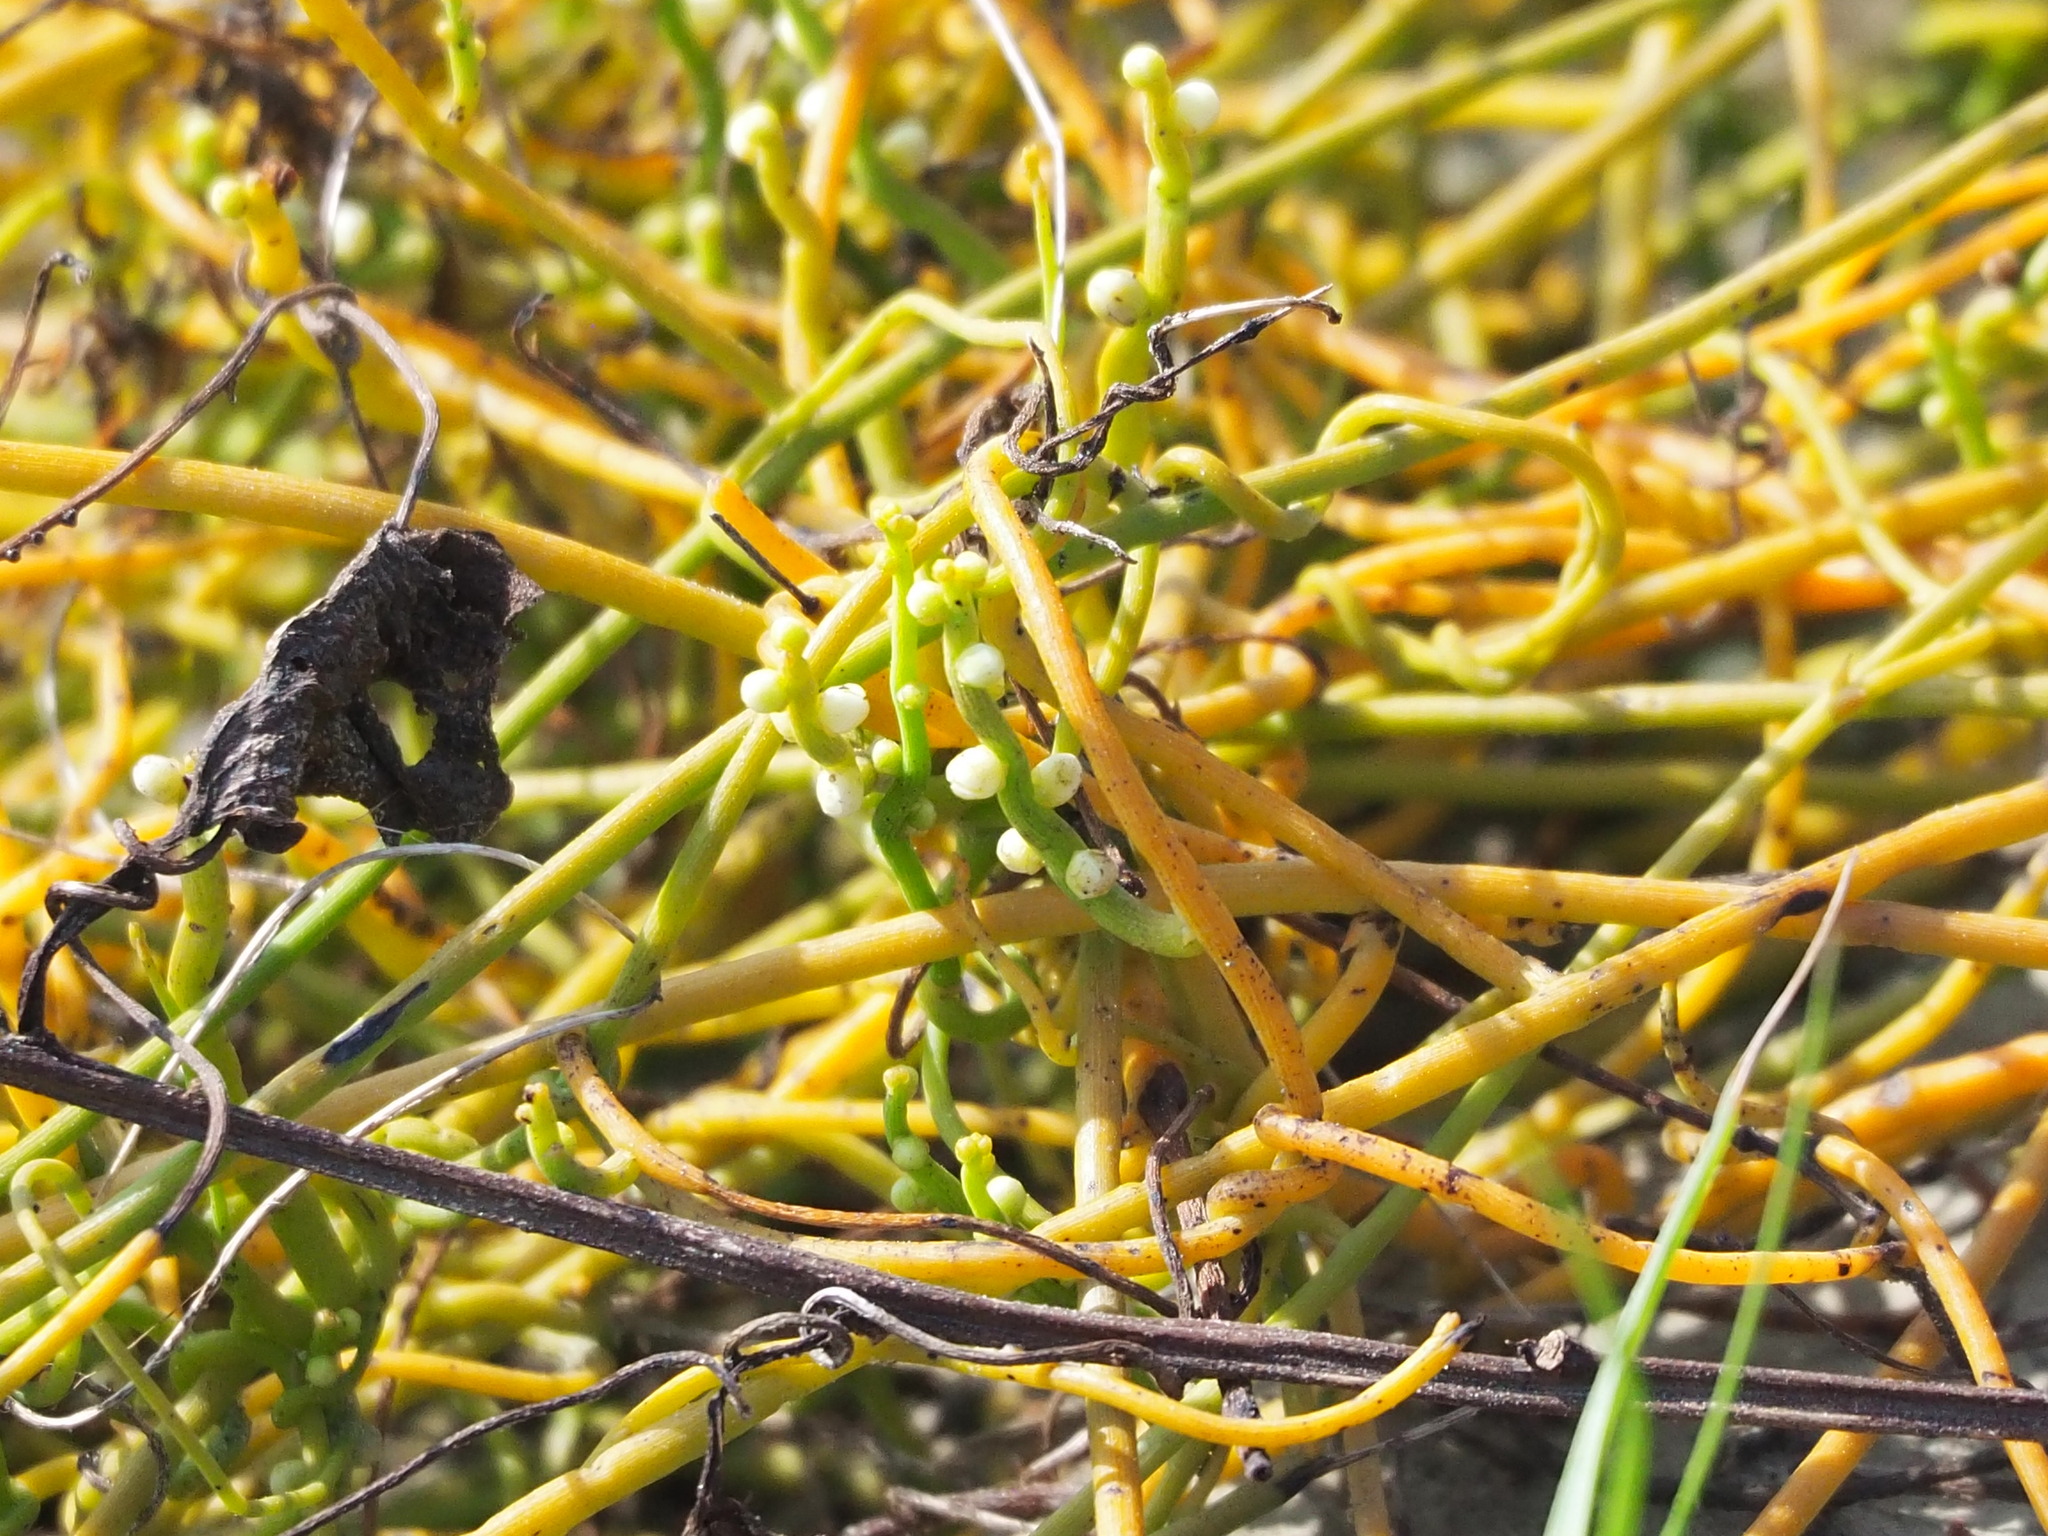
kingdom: Plantae
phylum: Tracheophyta
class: Magnoliopsida
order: Laurales
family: Lauraceae
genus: Cassytha
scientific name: Cassytha filiformis
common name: Dodder-laurel
